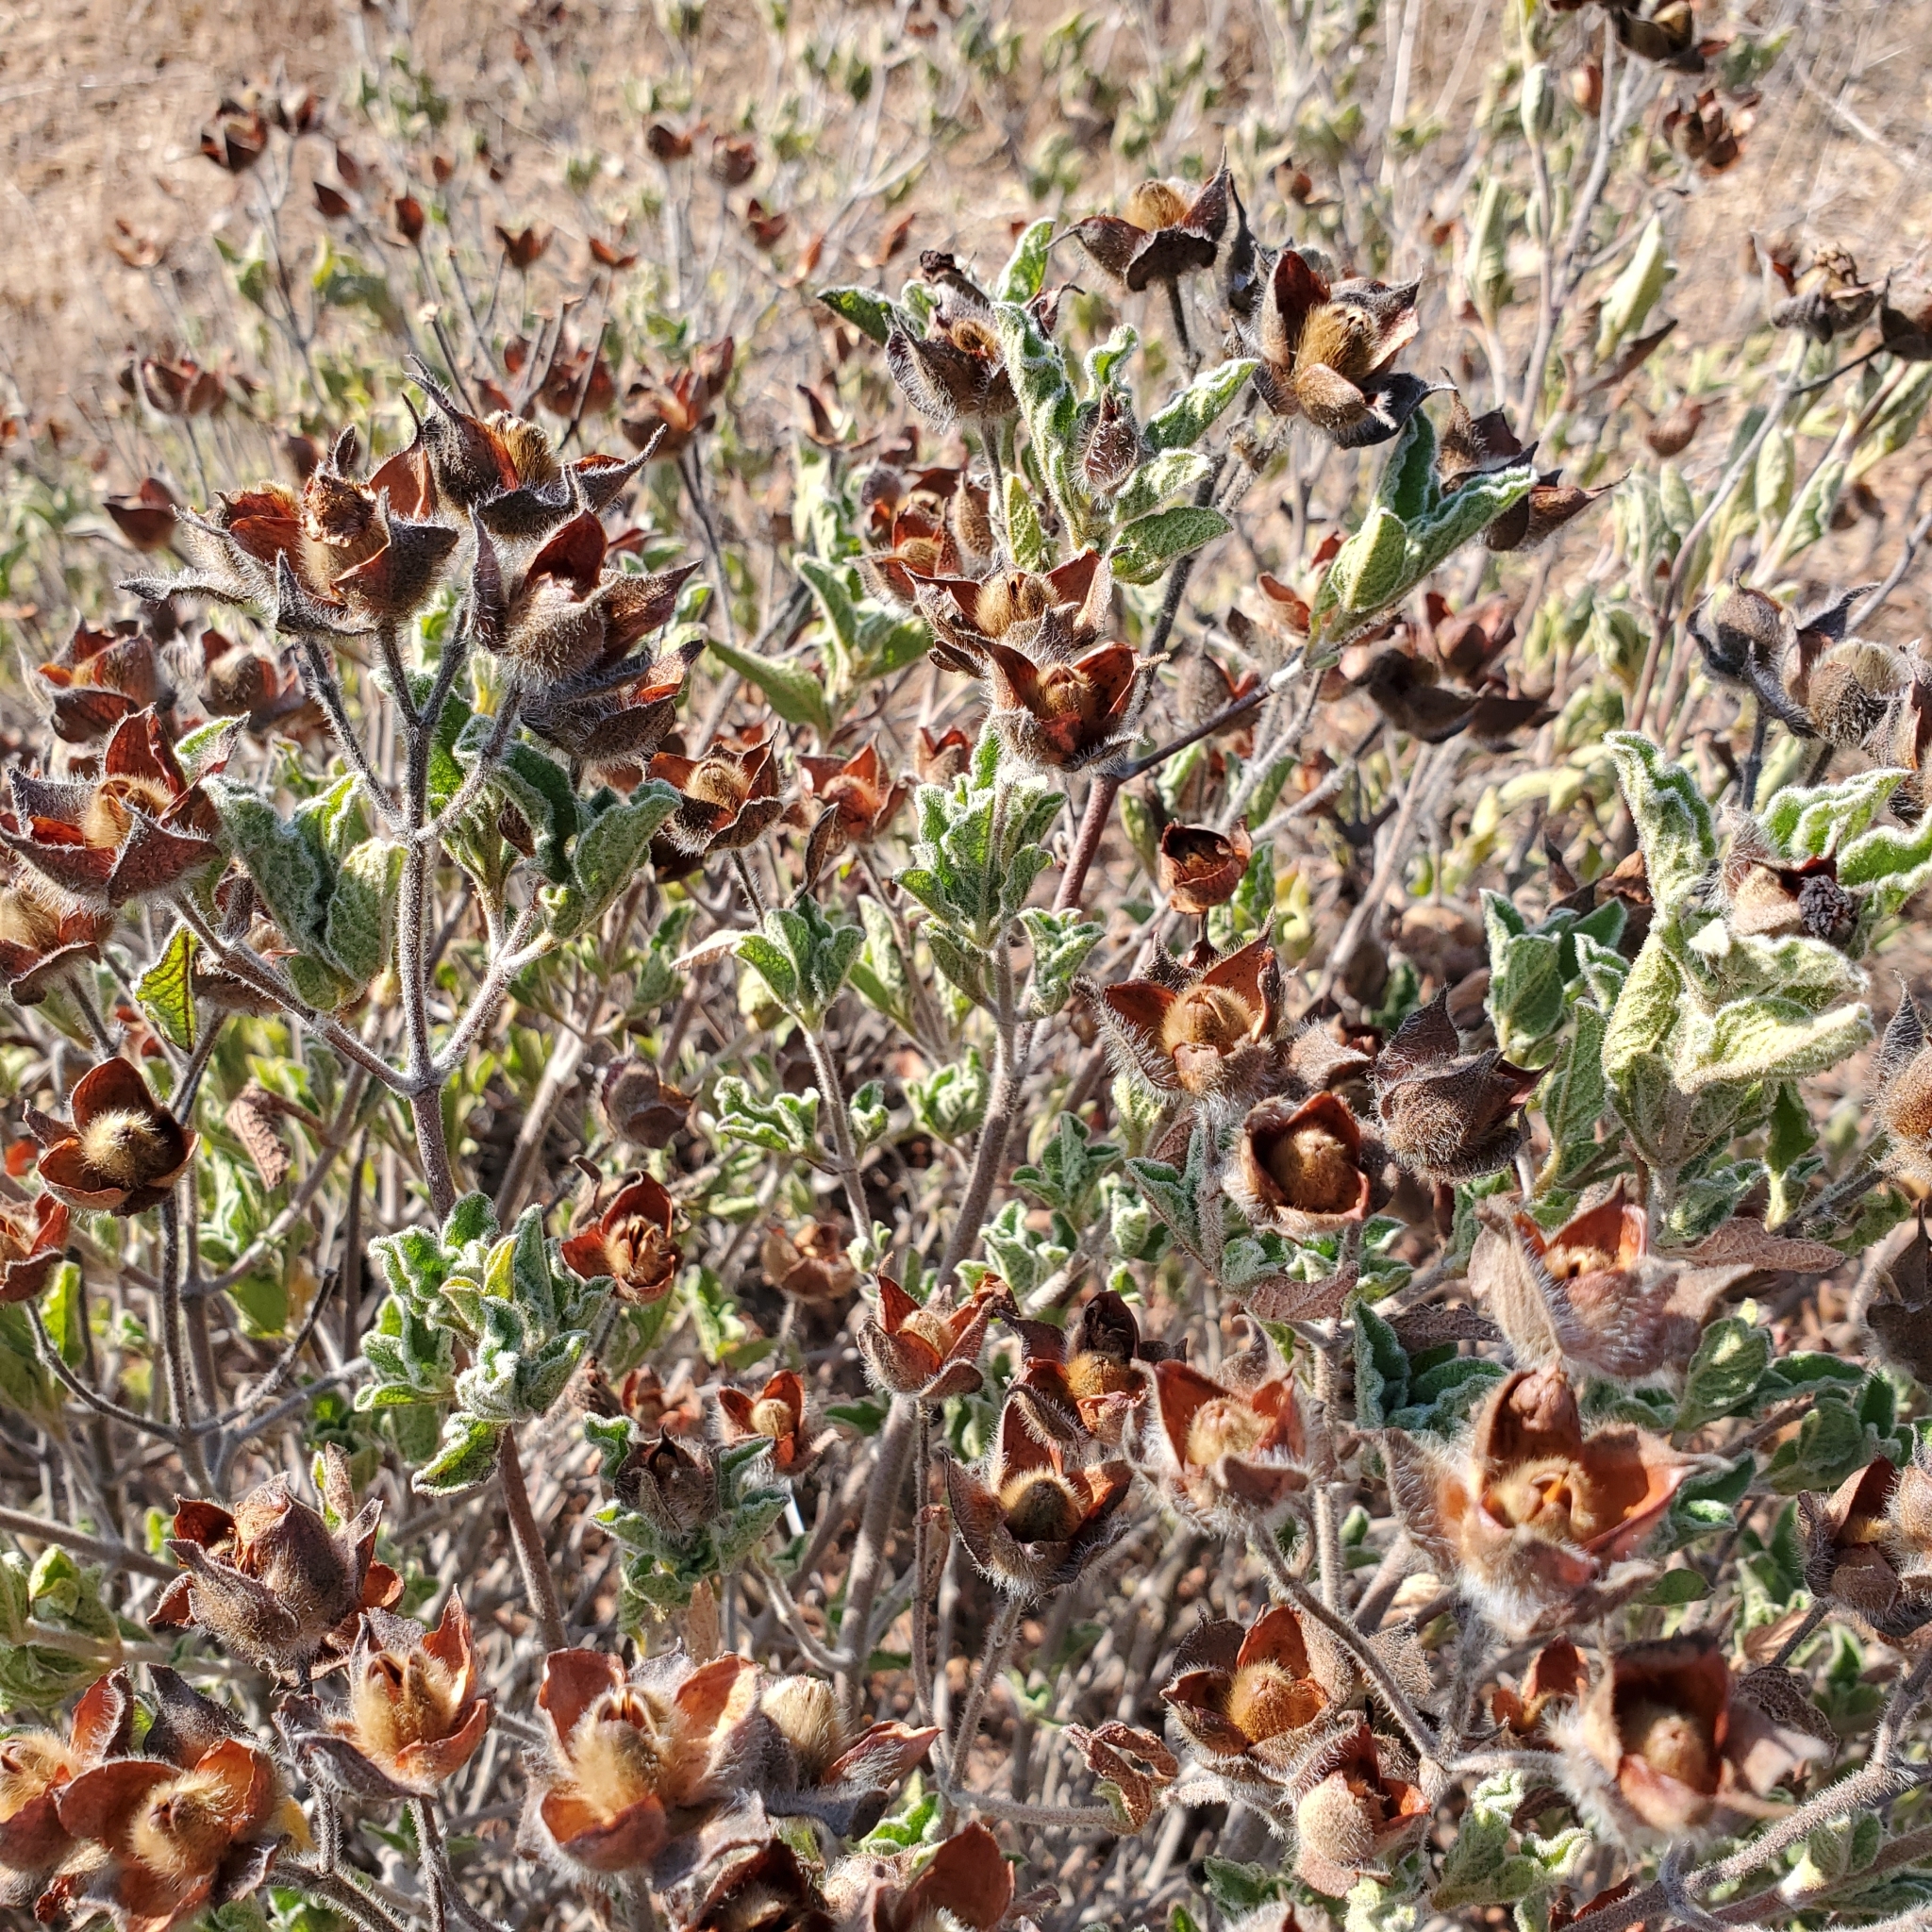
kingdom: Plantae
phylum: Tracheophyta
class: Magnoliopsida
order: Malvales
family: Cistaceae
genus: Cistus
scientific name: Cistus creticus
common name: Cretan rockrose
